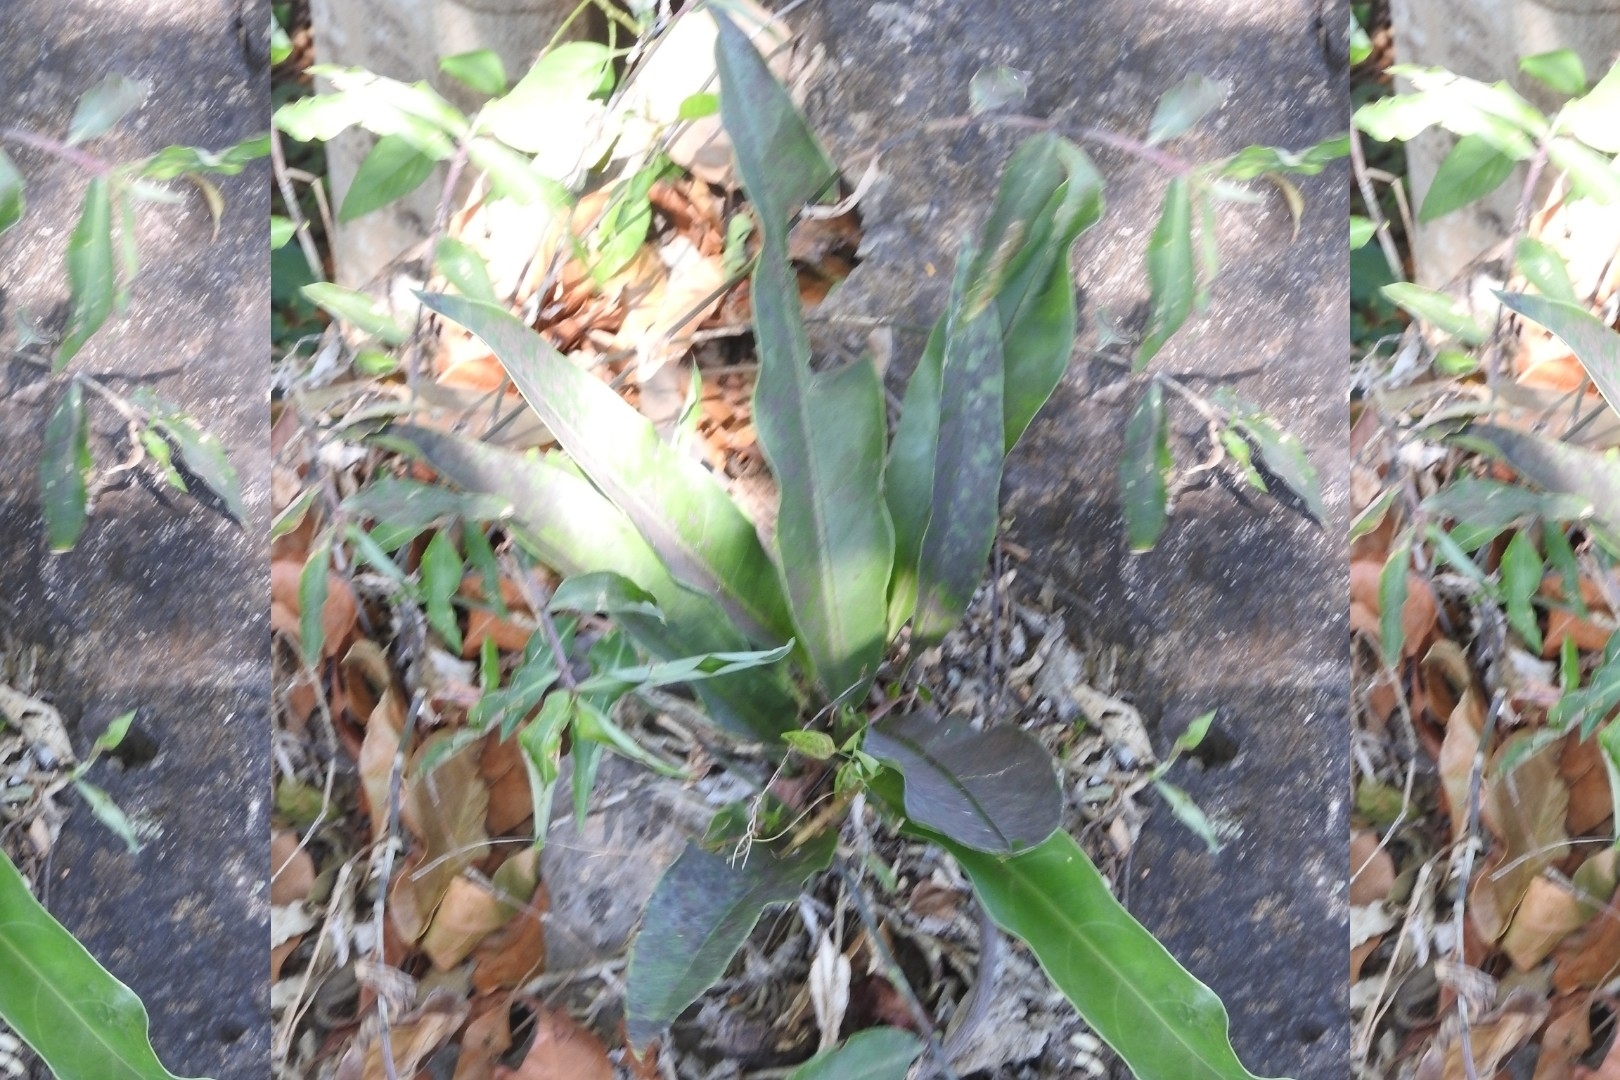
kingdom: Plantae
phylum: Tracheophyta
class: Liliopsida
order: Alismatales
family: Araceae
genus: Anthurium
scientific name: Anthurium schlechtendalii
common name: Laceleaf
